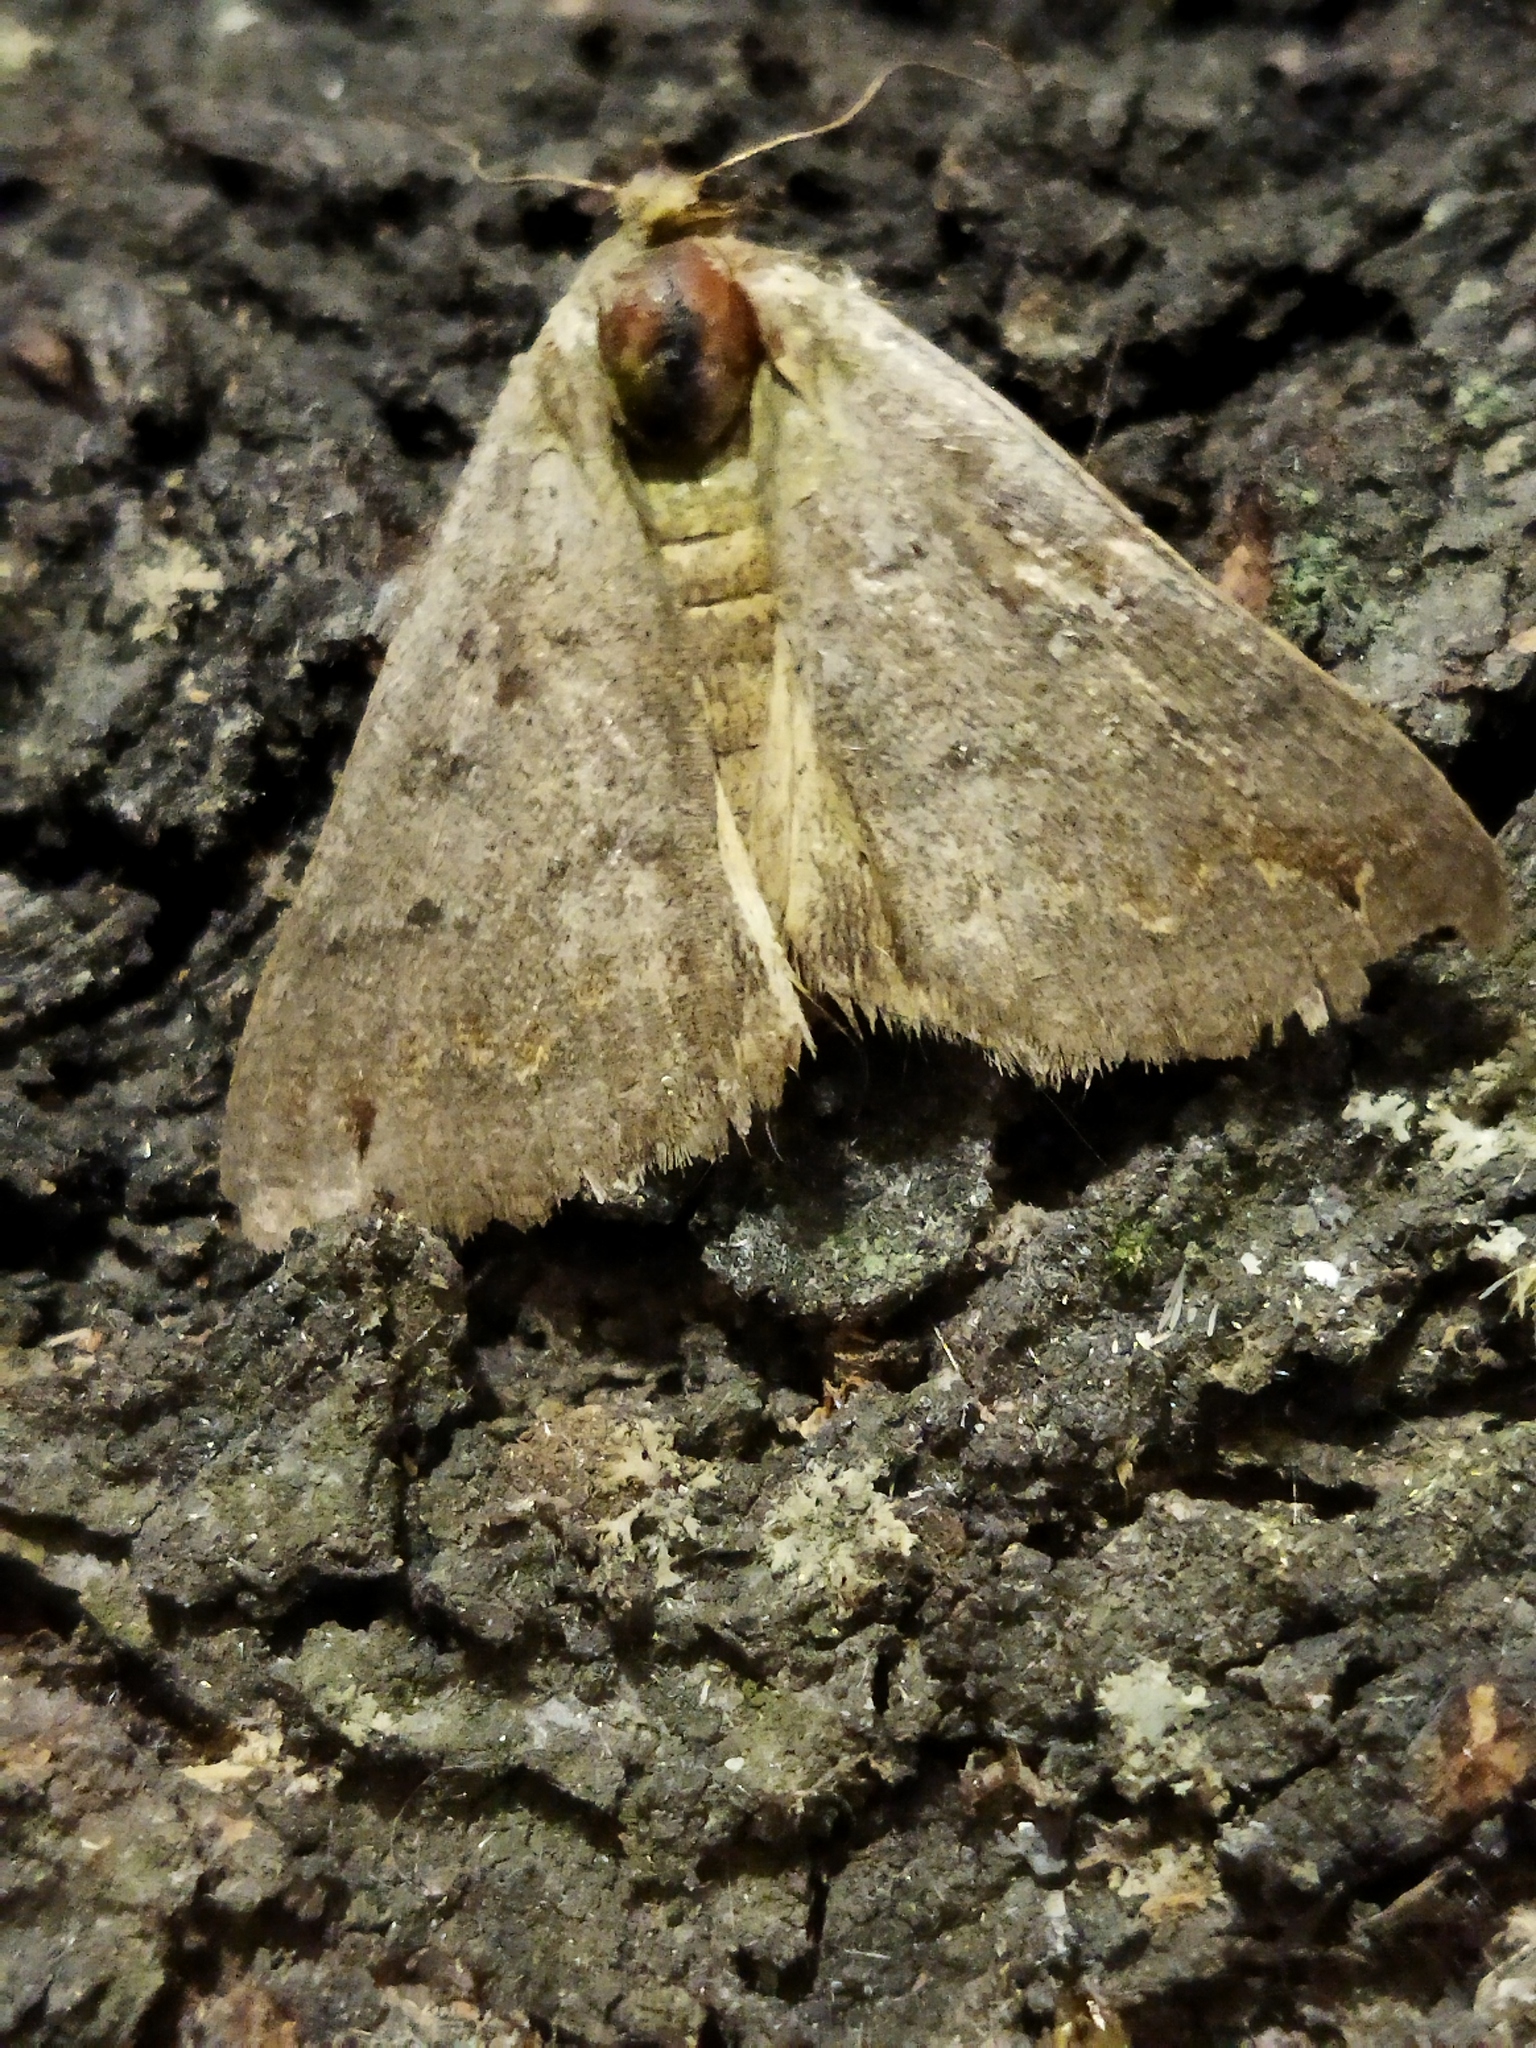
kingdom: Animalia
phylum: Arthropoda
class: Insecta
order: Lepidoptera
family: Erebidae
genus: Clytie
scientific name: Clytie syriaca
